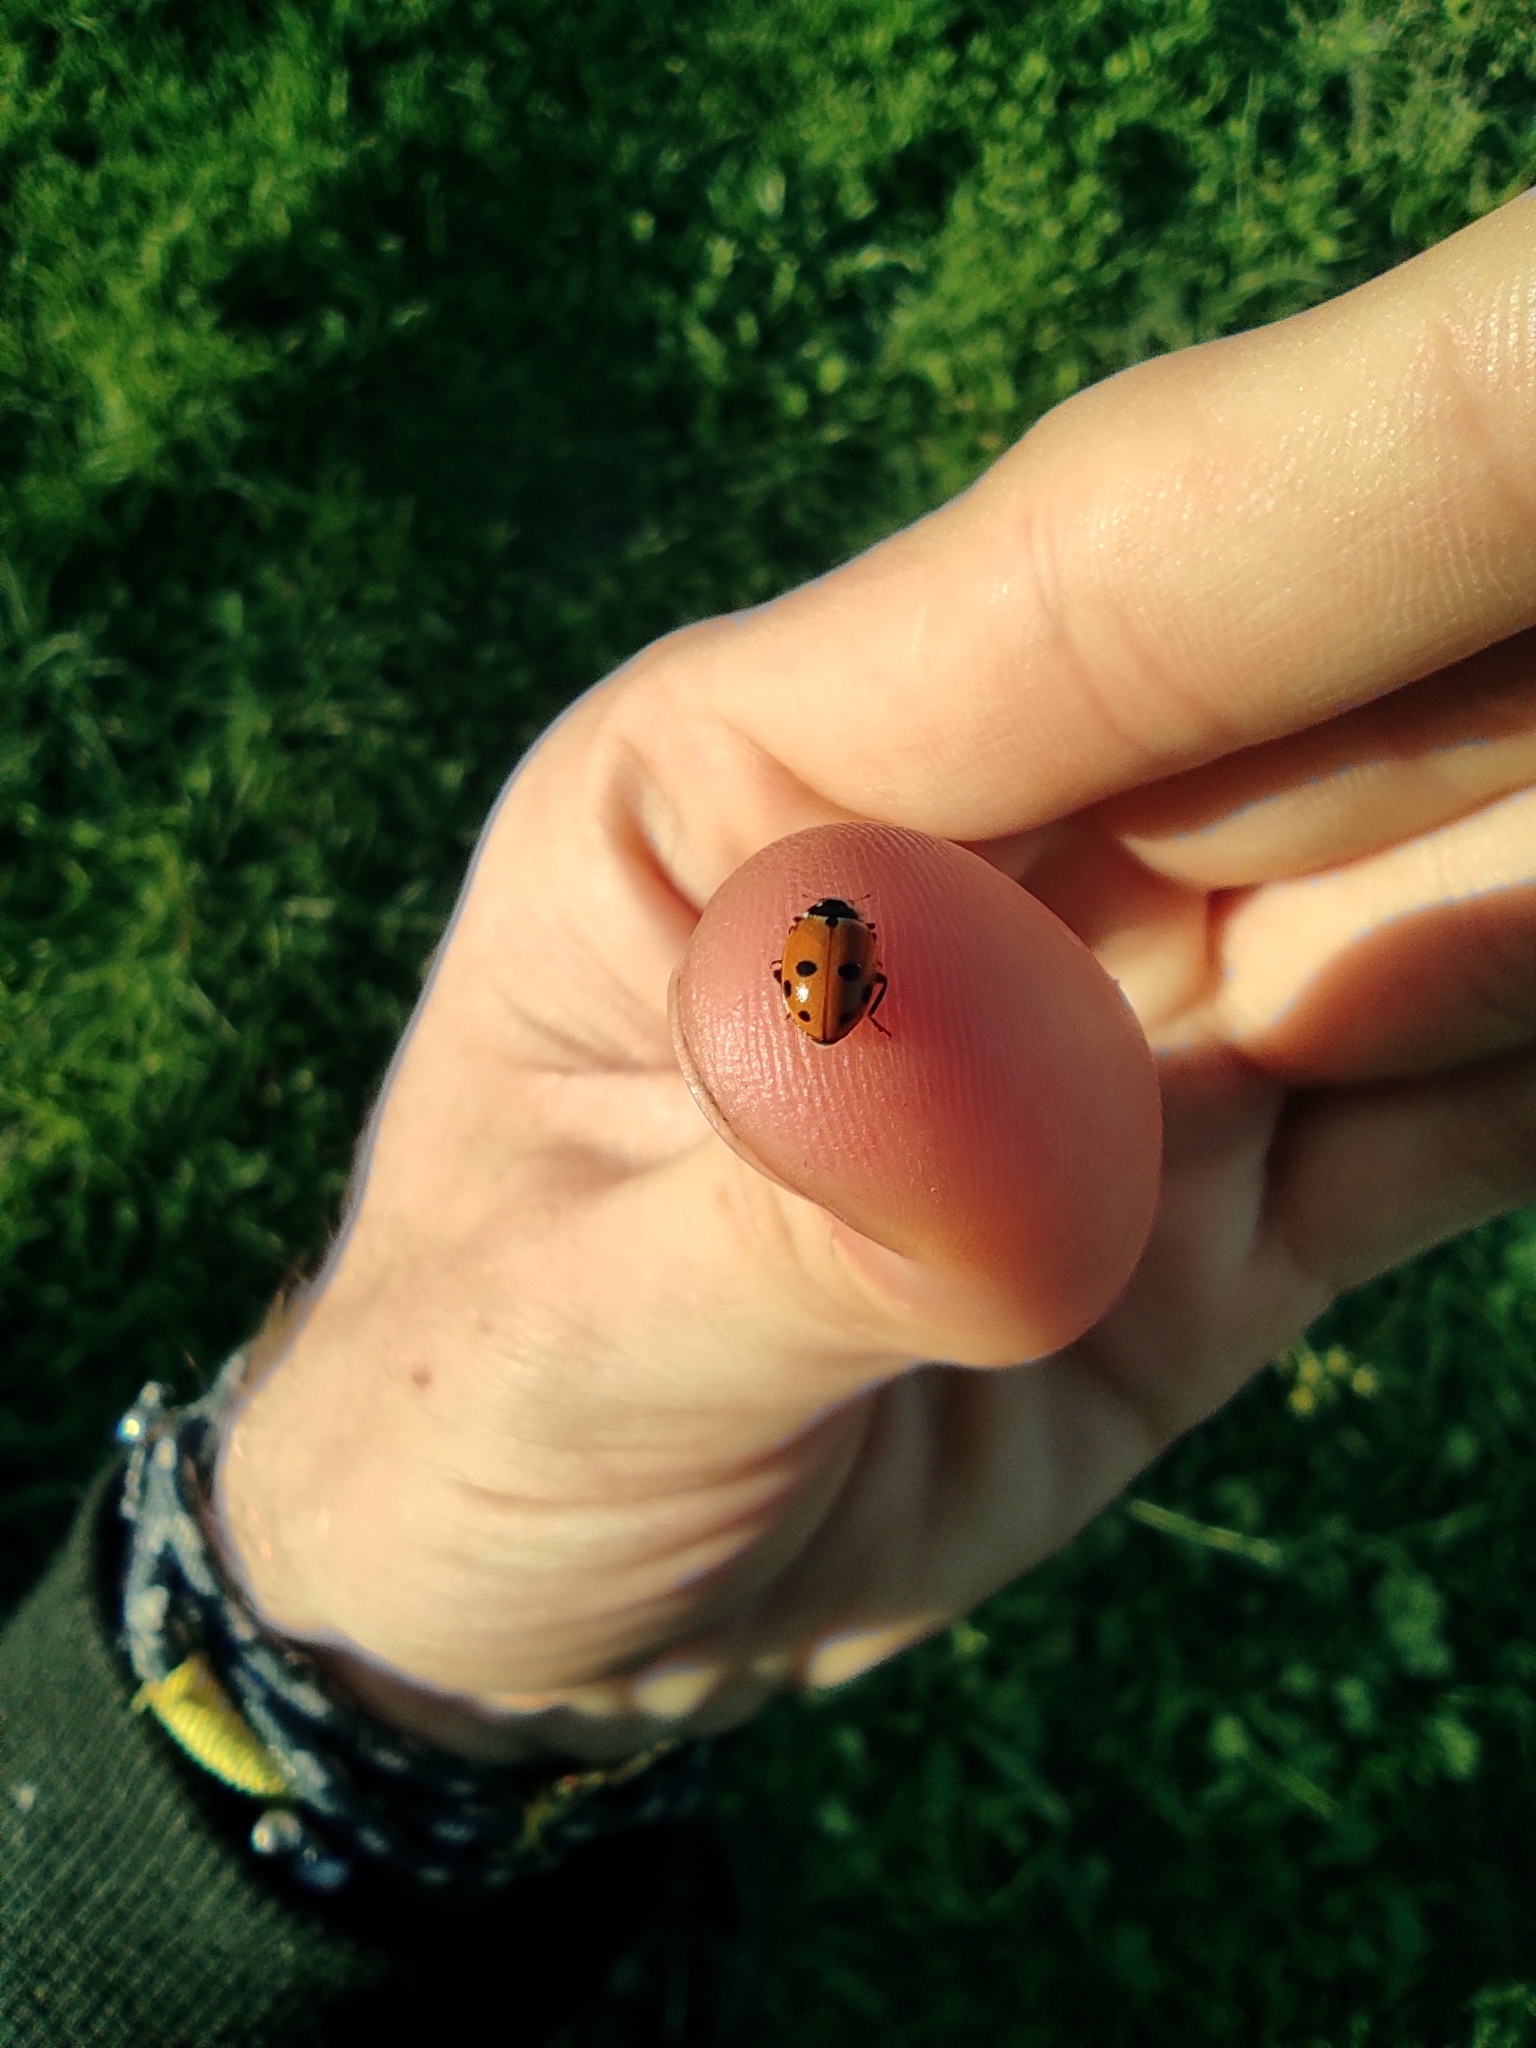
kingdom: Animalia
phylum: Arthropoda
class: Insecta
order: Coleoptera
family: Coccinellidae
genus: Hippodamia
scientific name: Hippodamia variegata
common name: Ladybird beetle
